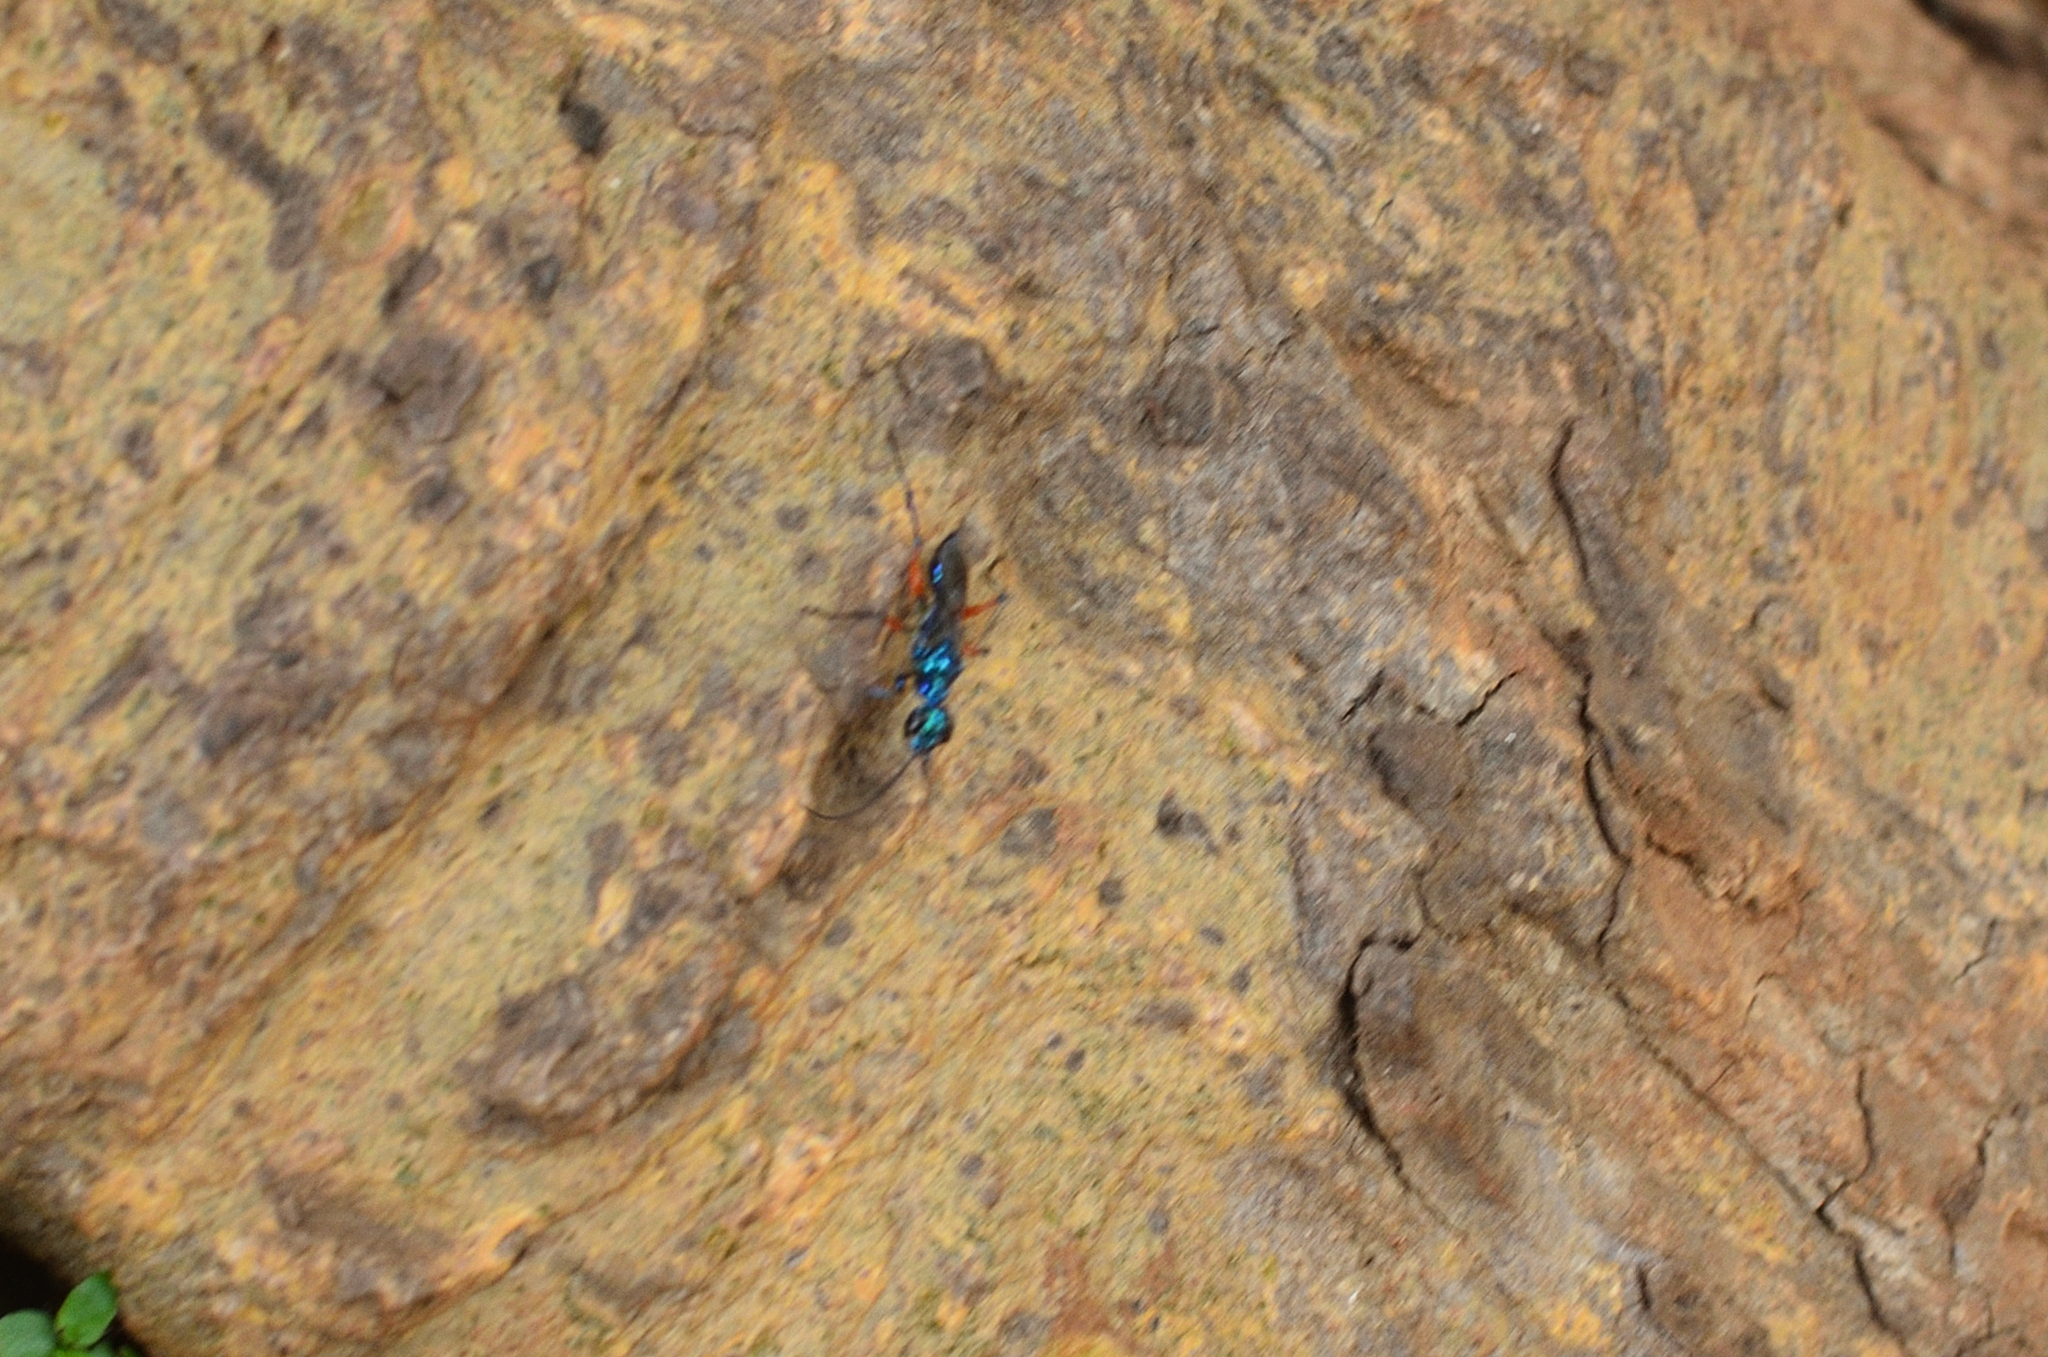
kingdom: Animalia
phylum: Arthropoda
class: Insecta
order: Hymenoptera
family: Ampulicidae
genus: Ampulex
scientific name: Ampulex compressa
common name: Emerald cockroach wasp
